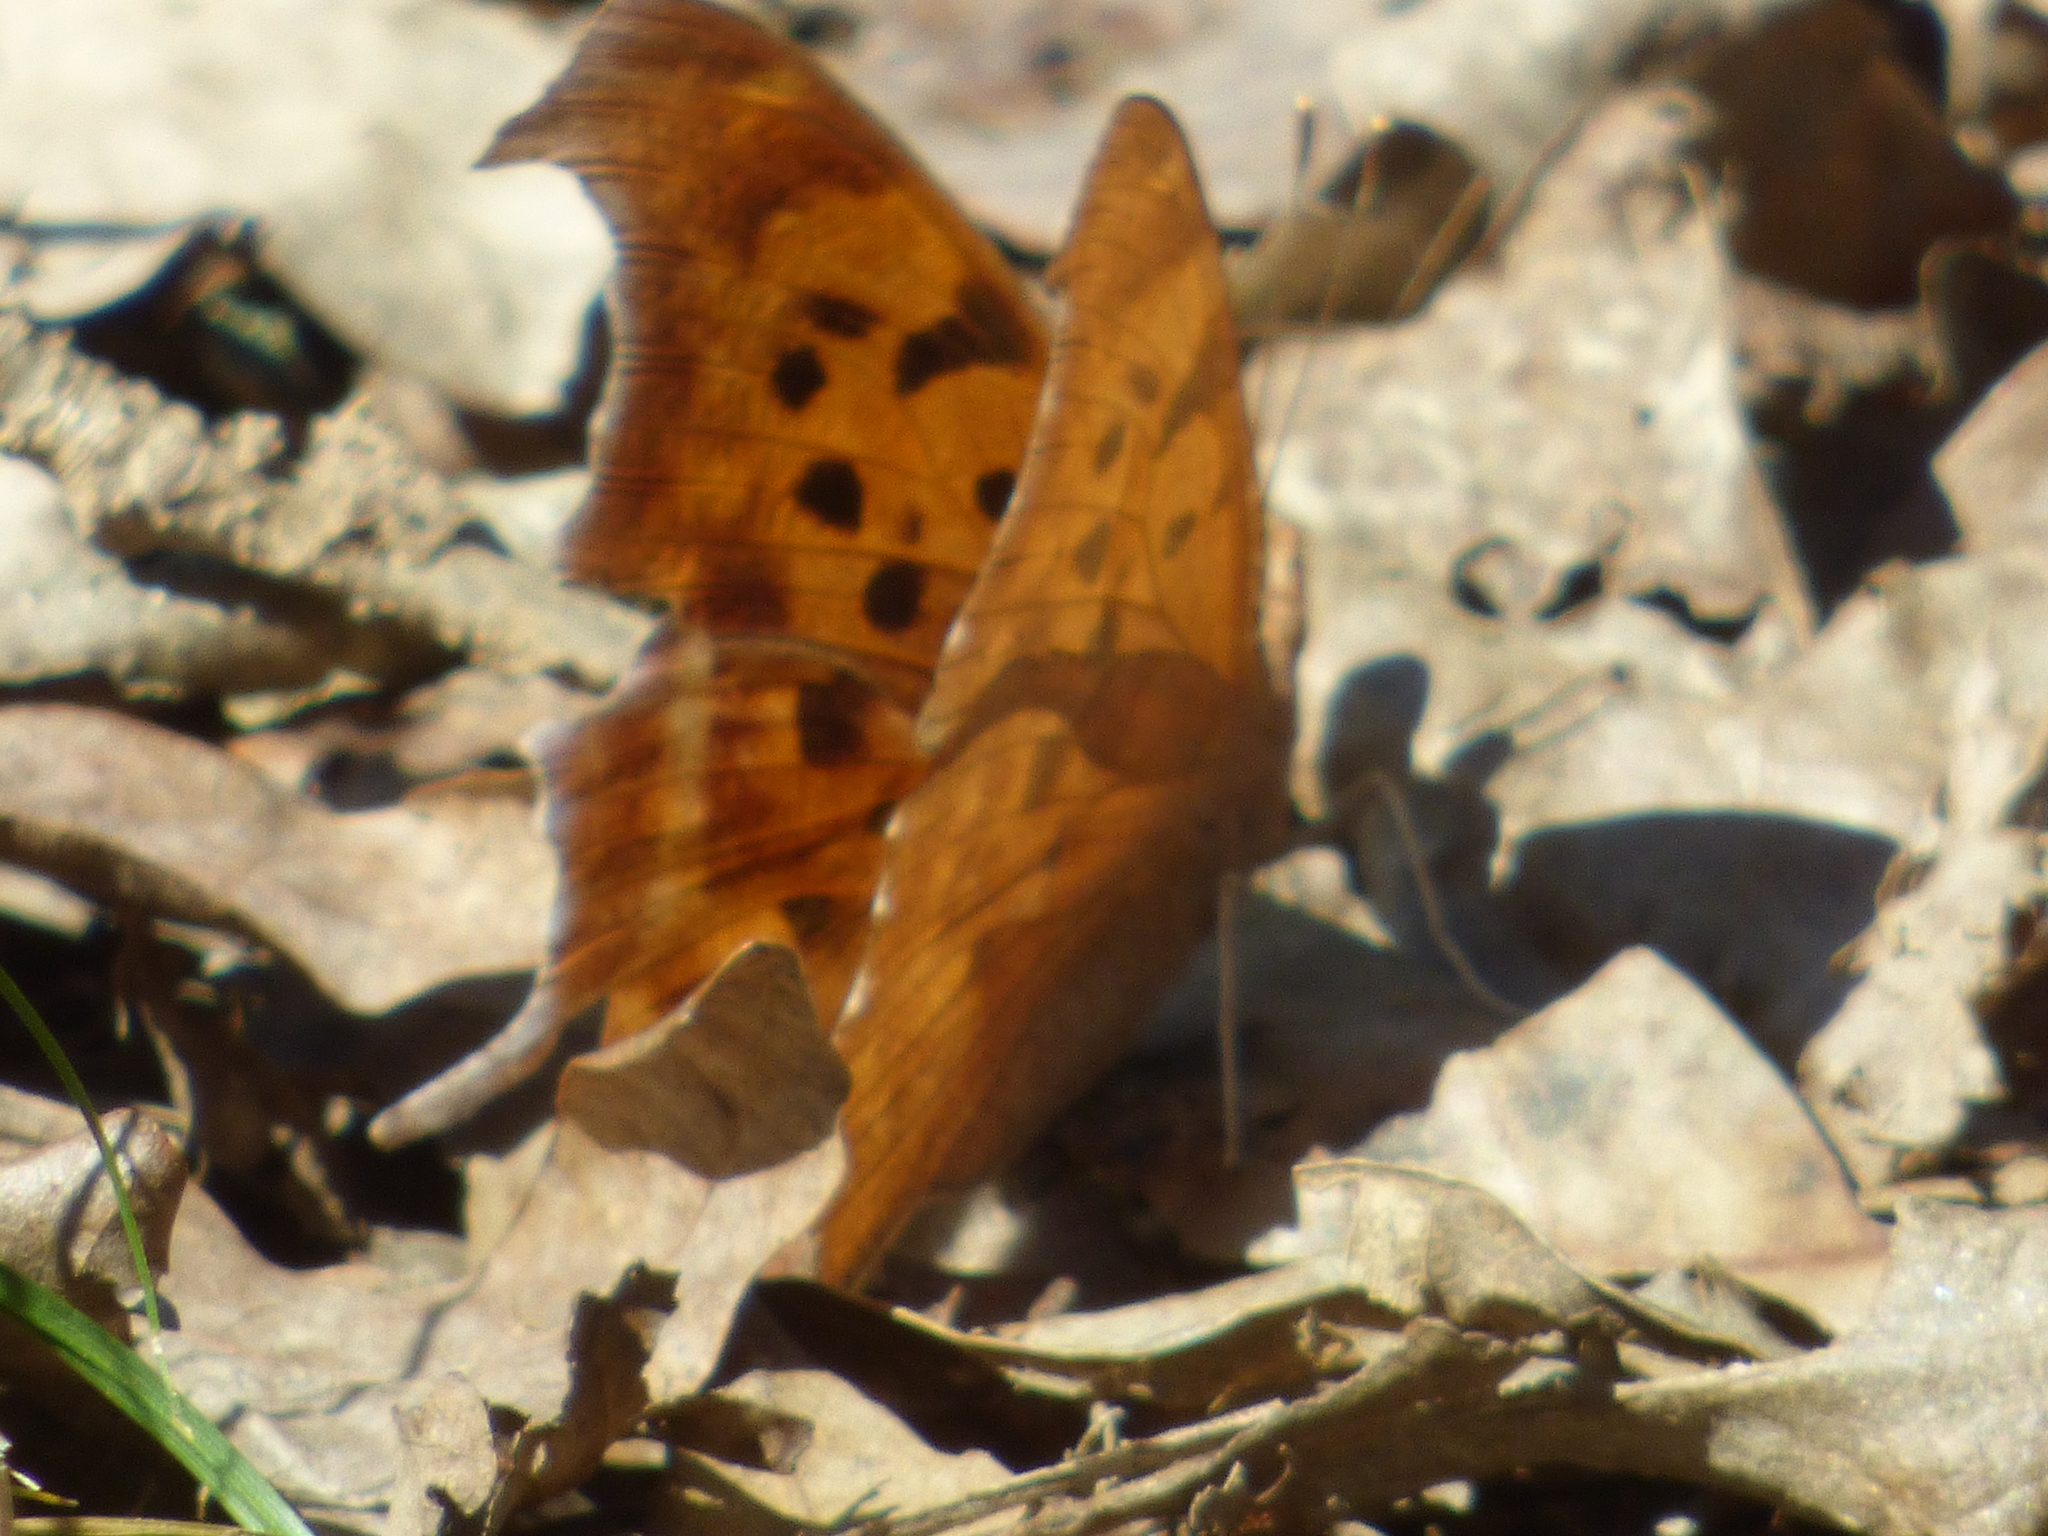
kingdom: Animalia
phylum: Arthropoda
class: Insecta
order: Lepidoptera
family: Nymphalidae
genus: Polygonia
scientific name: Polygonia interrogationis
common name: Question mark
